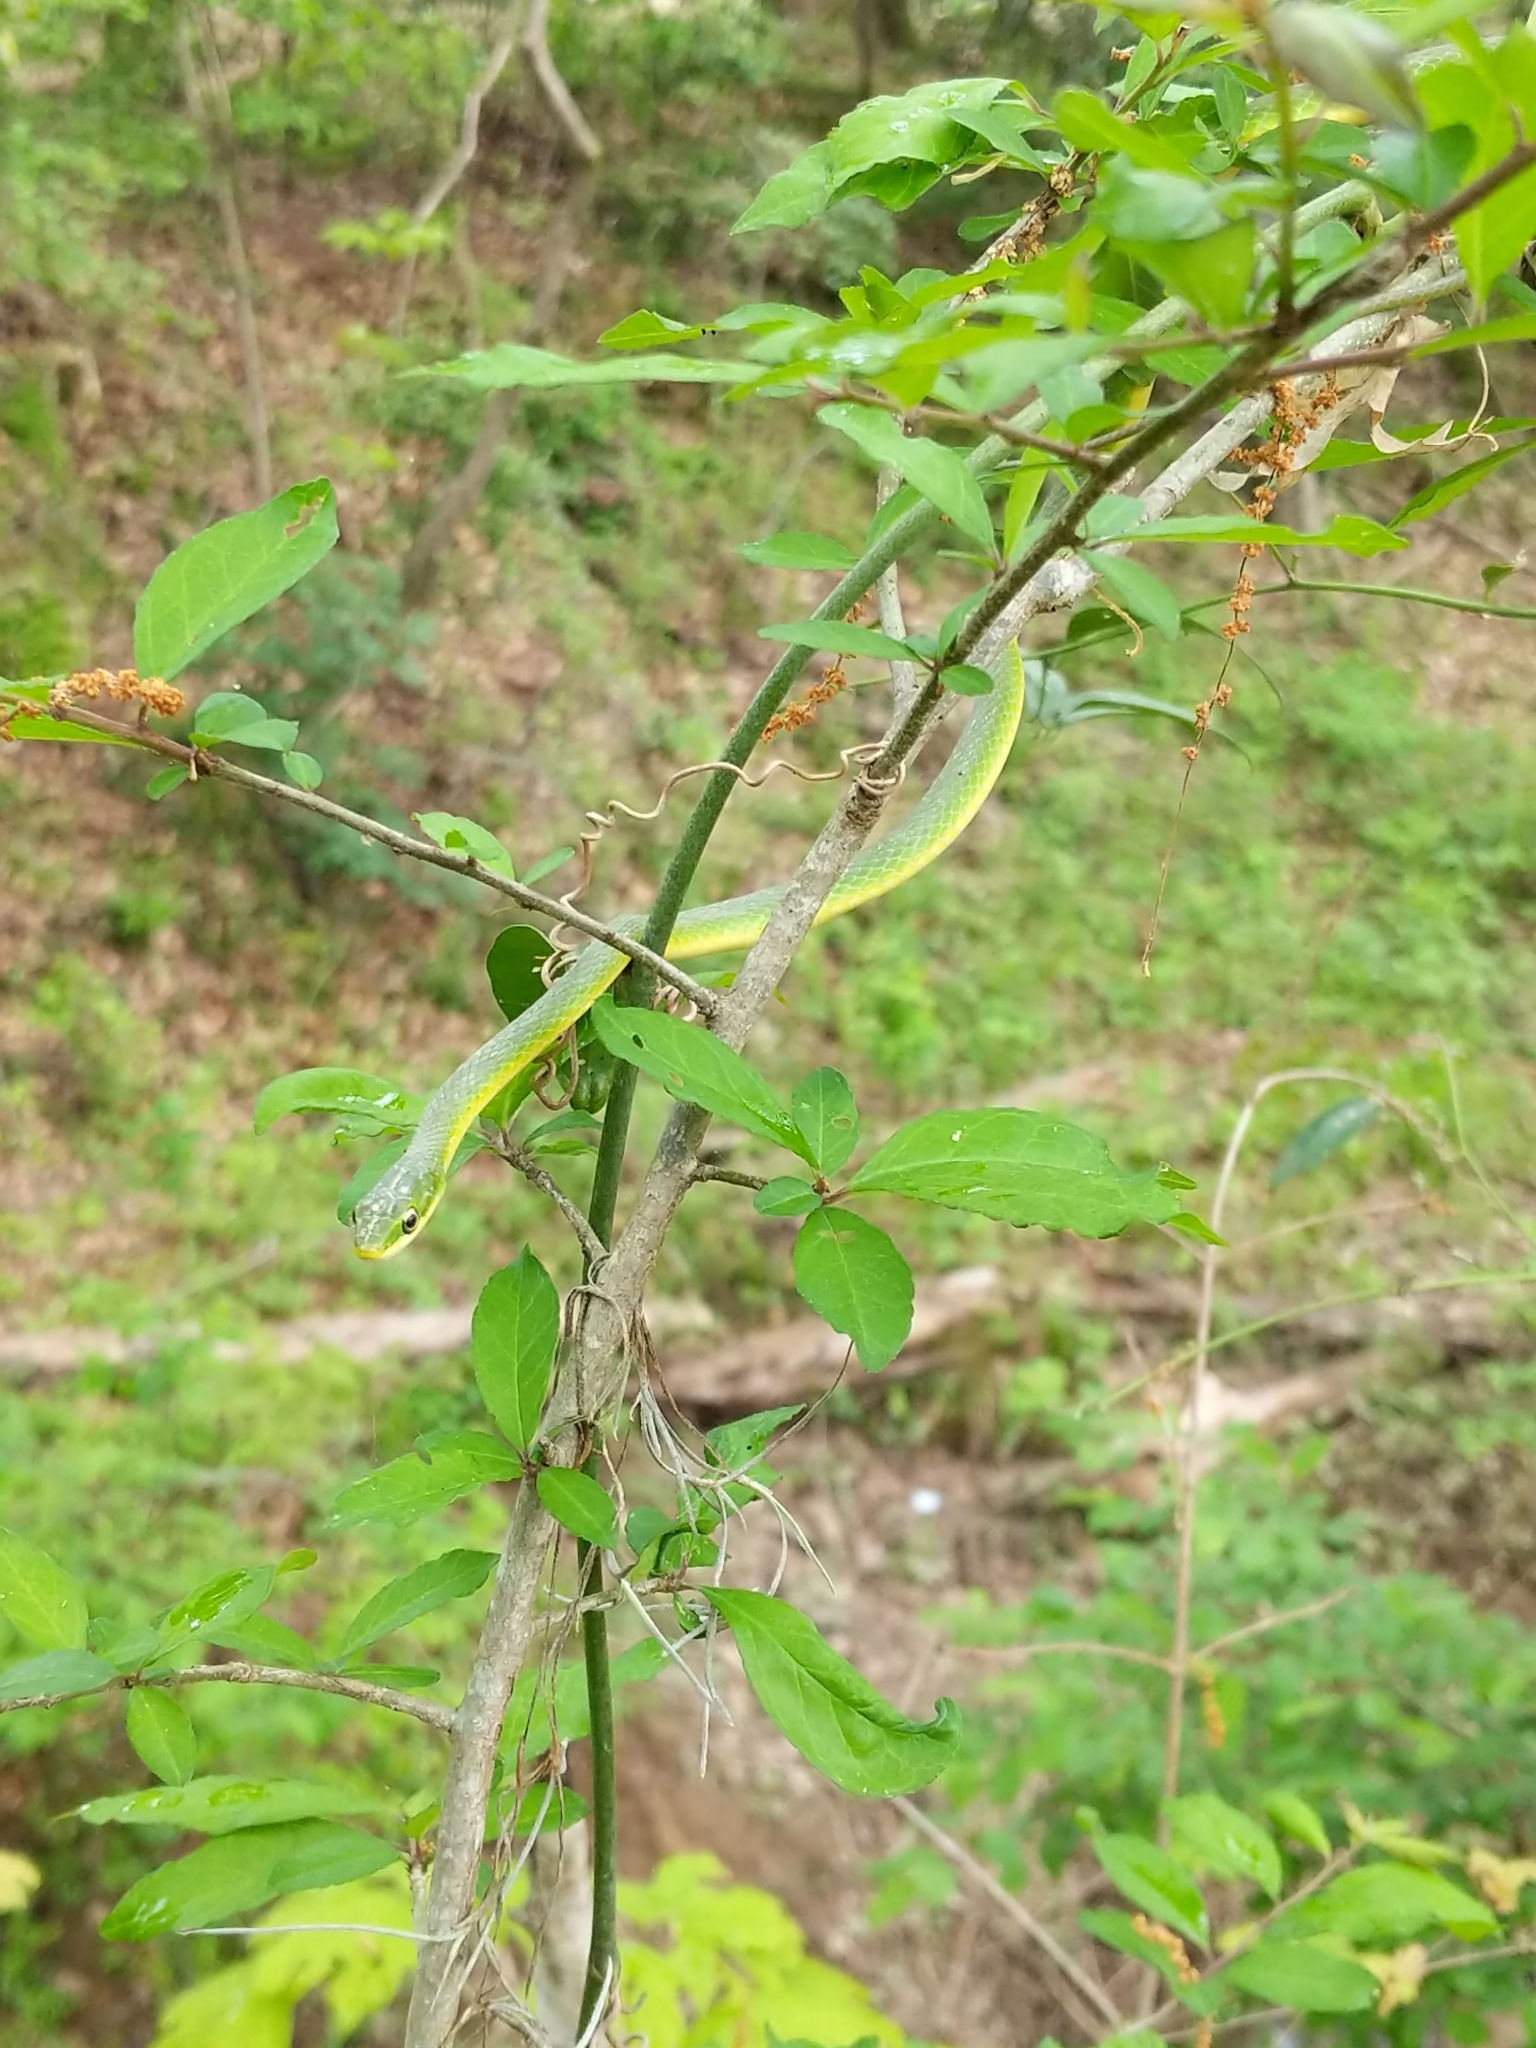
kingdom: Animalia
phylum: Chordata
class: Squamata
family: Colubridae
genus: Opheodrys
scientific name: Opheodrys aestivus
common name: Rough greensnake
